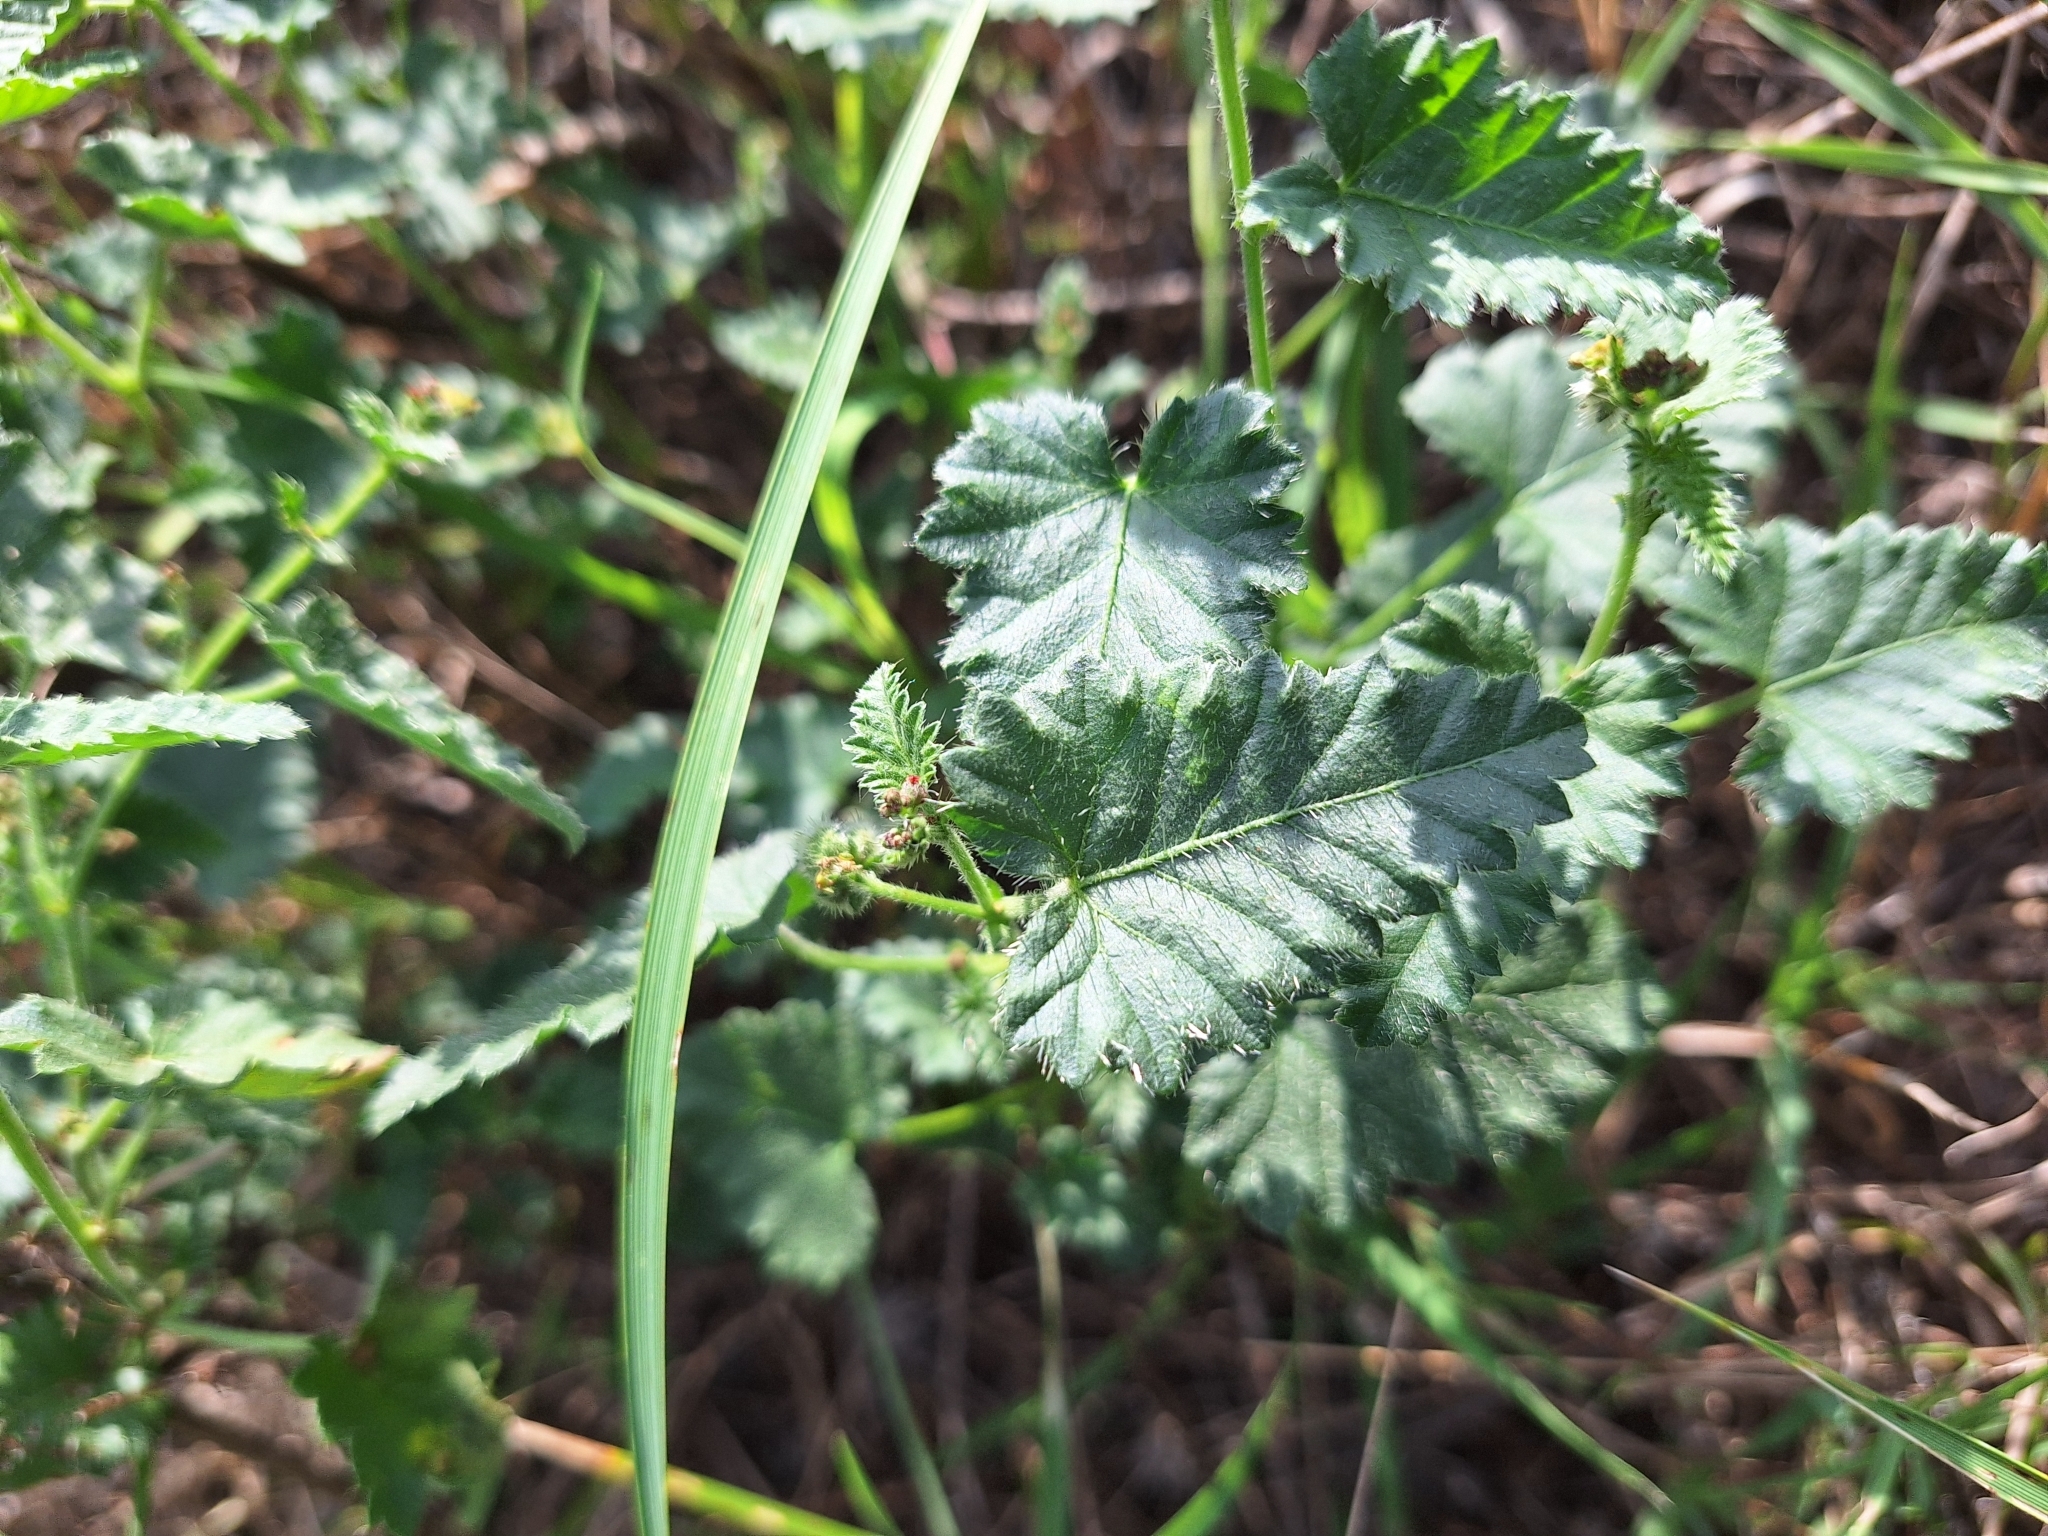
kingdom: Plantae
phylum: Tracheophyta
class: Magnoliopsida
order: Malpighiales
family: Euphorbiaceae
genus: Tragia
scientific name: Tragia geraniifolia
